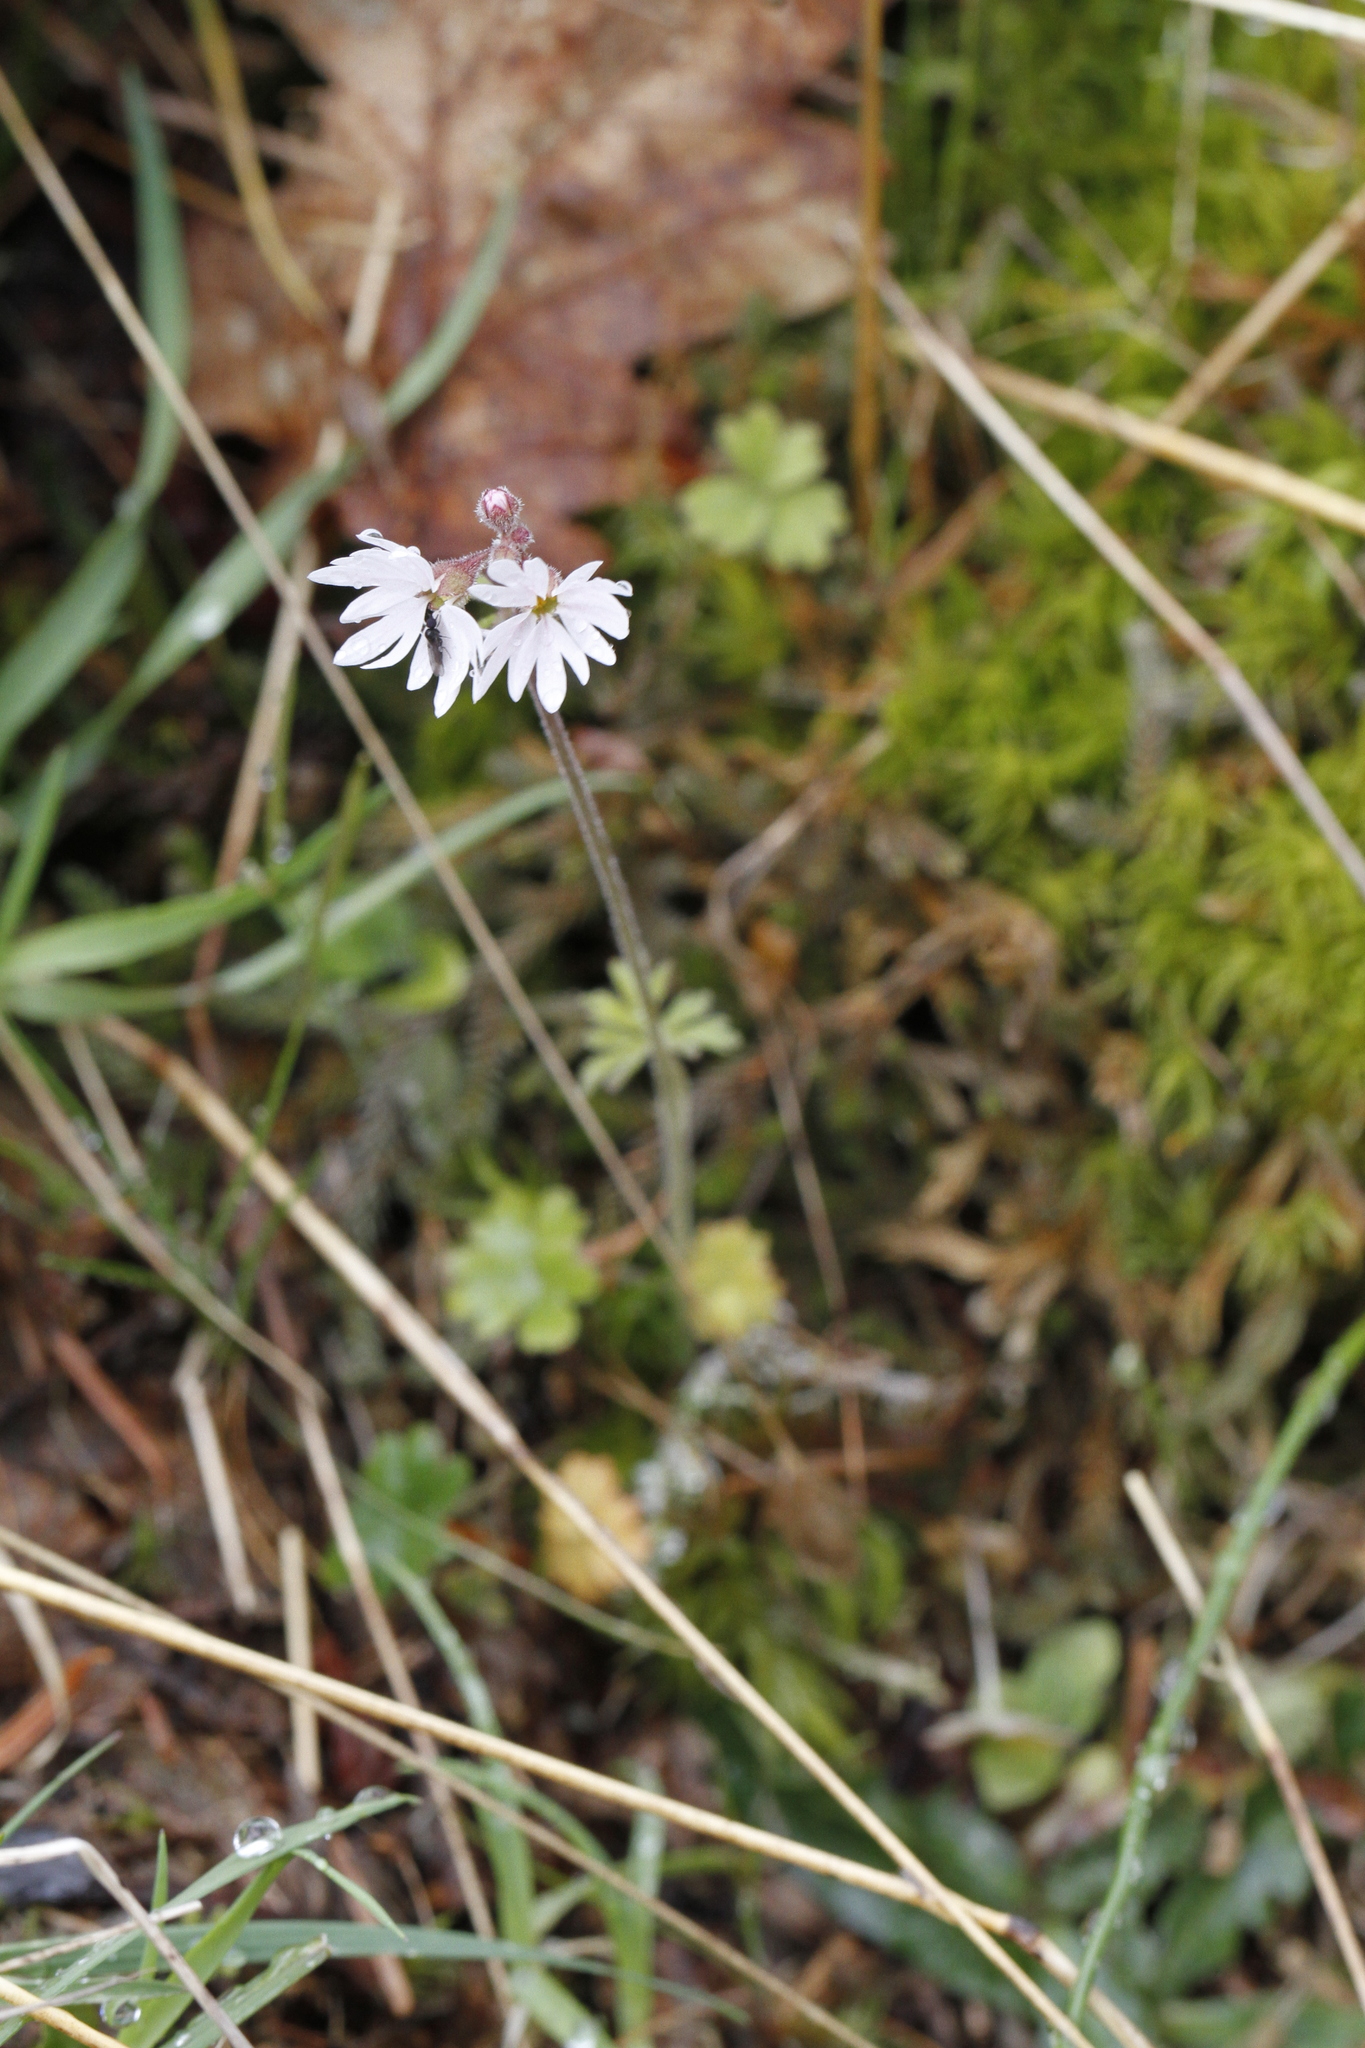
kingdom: Plantae
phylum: Tracheophyta
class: Magnoliopsida
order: Saxifragales
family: Saxifragaceae
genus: Lithophragma
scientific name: Lithophragma parviflorum
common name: Small-flowered fringe-cup
